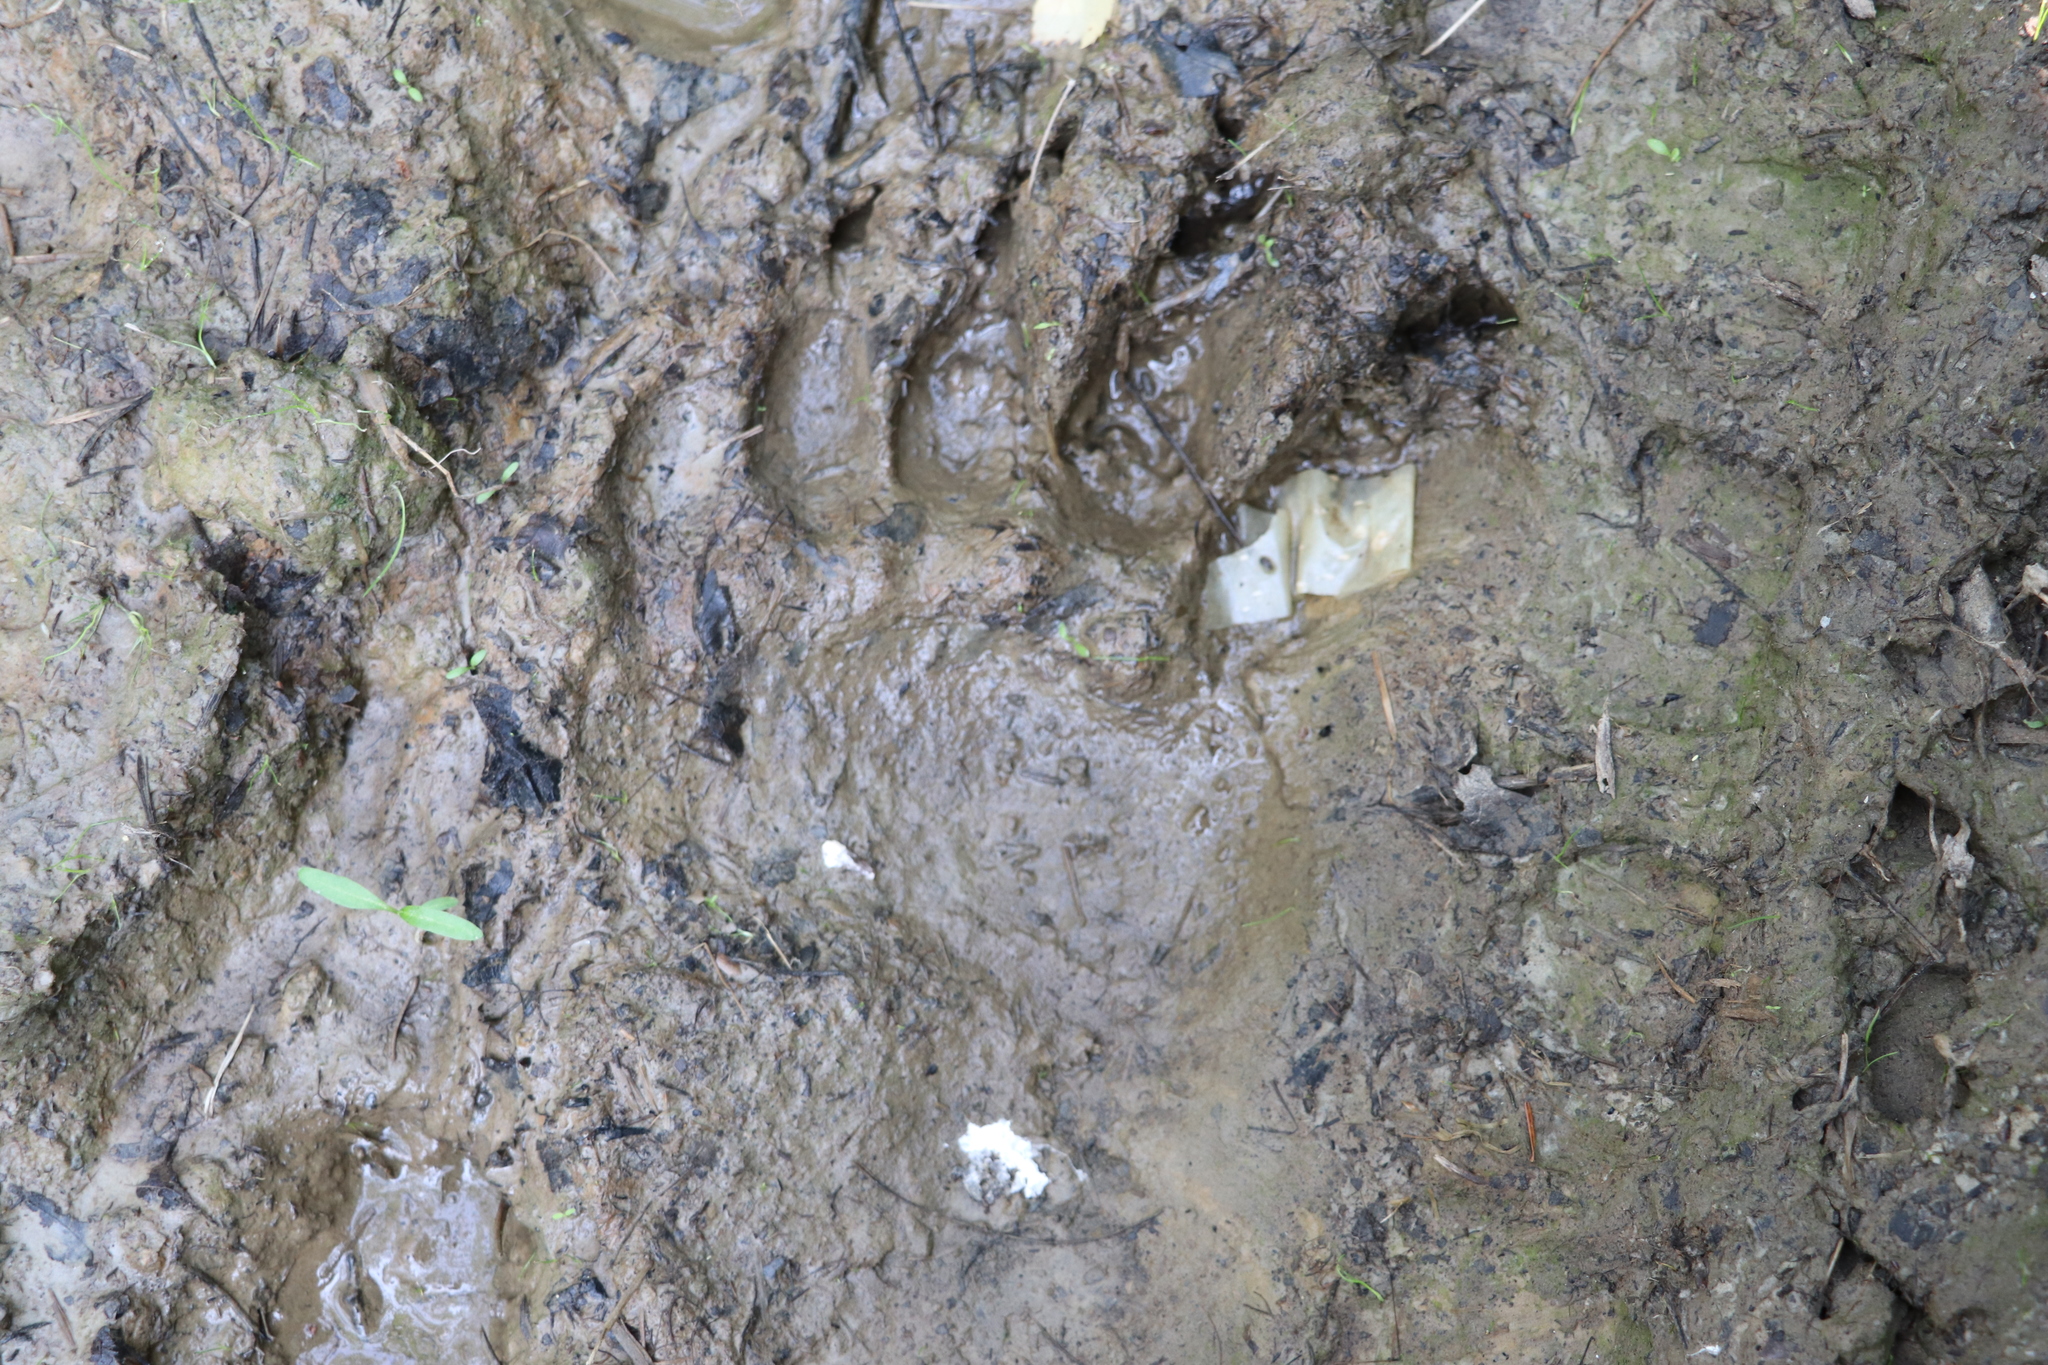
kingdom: Animalia
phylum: Chordata
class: Mammalia
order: Carnivora
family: Ursidae
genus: Ursus
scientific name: Ursus arctos
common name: Brown bear
